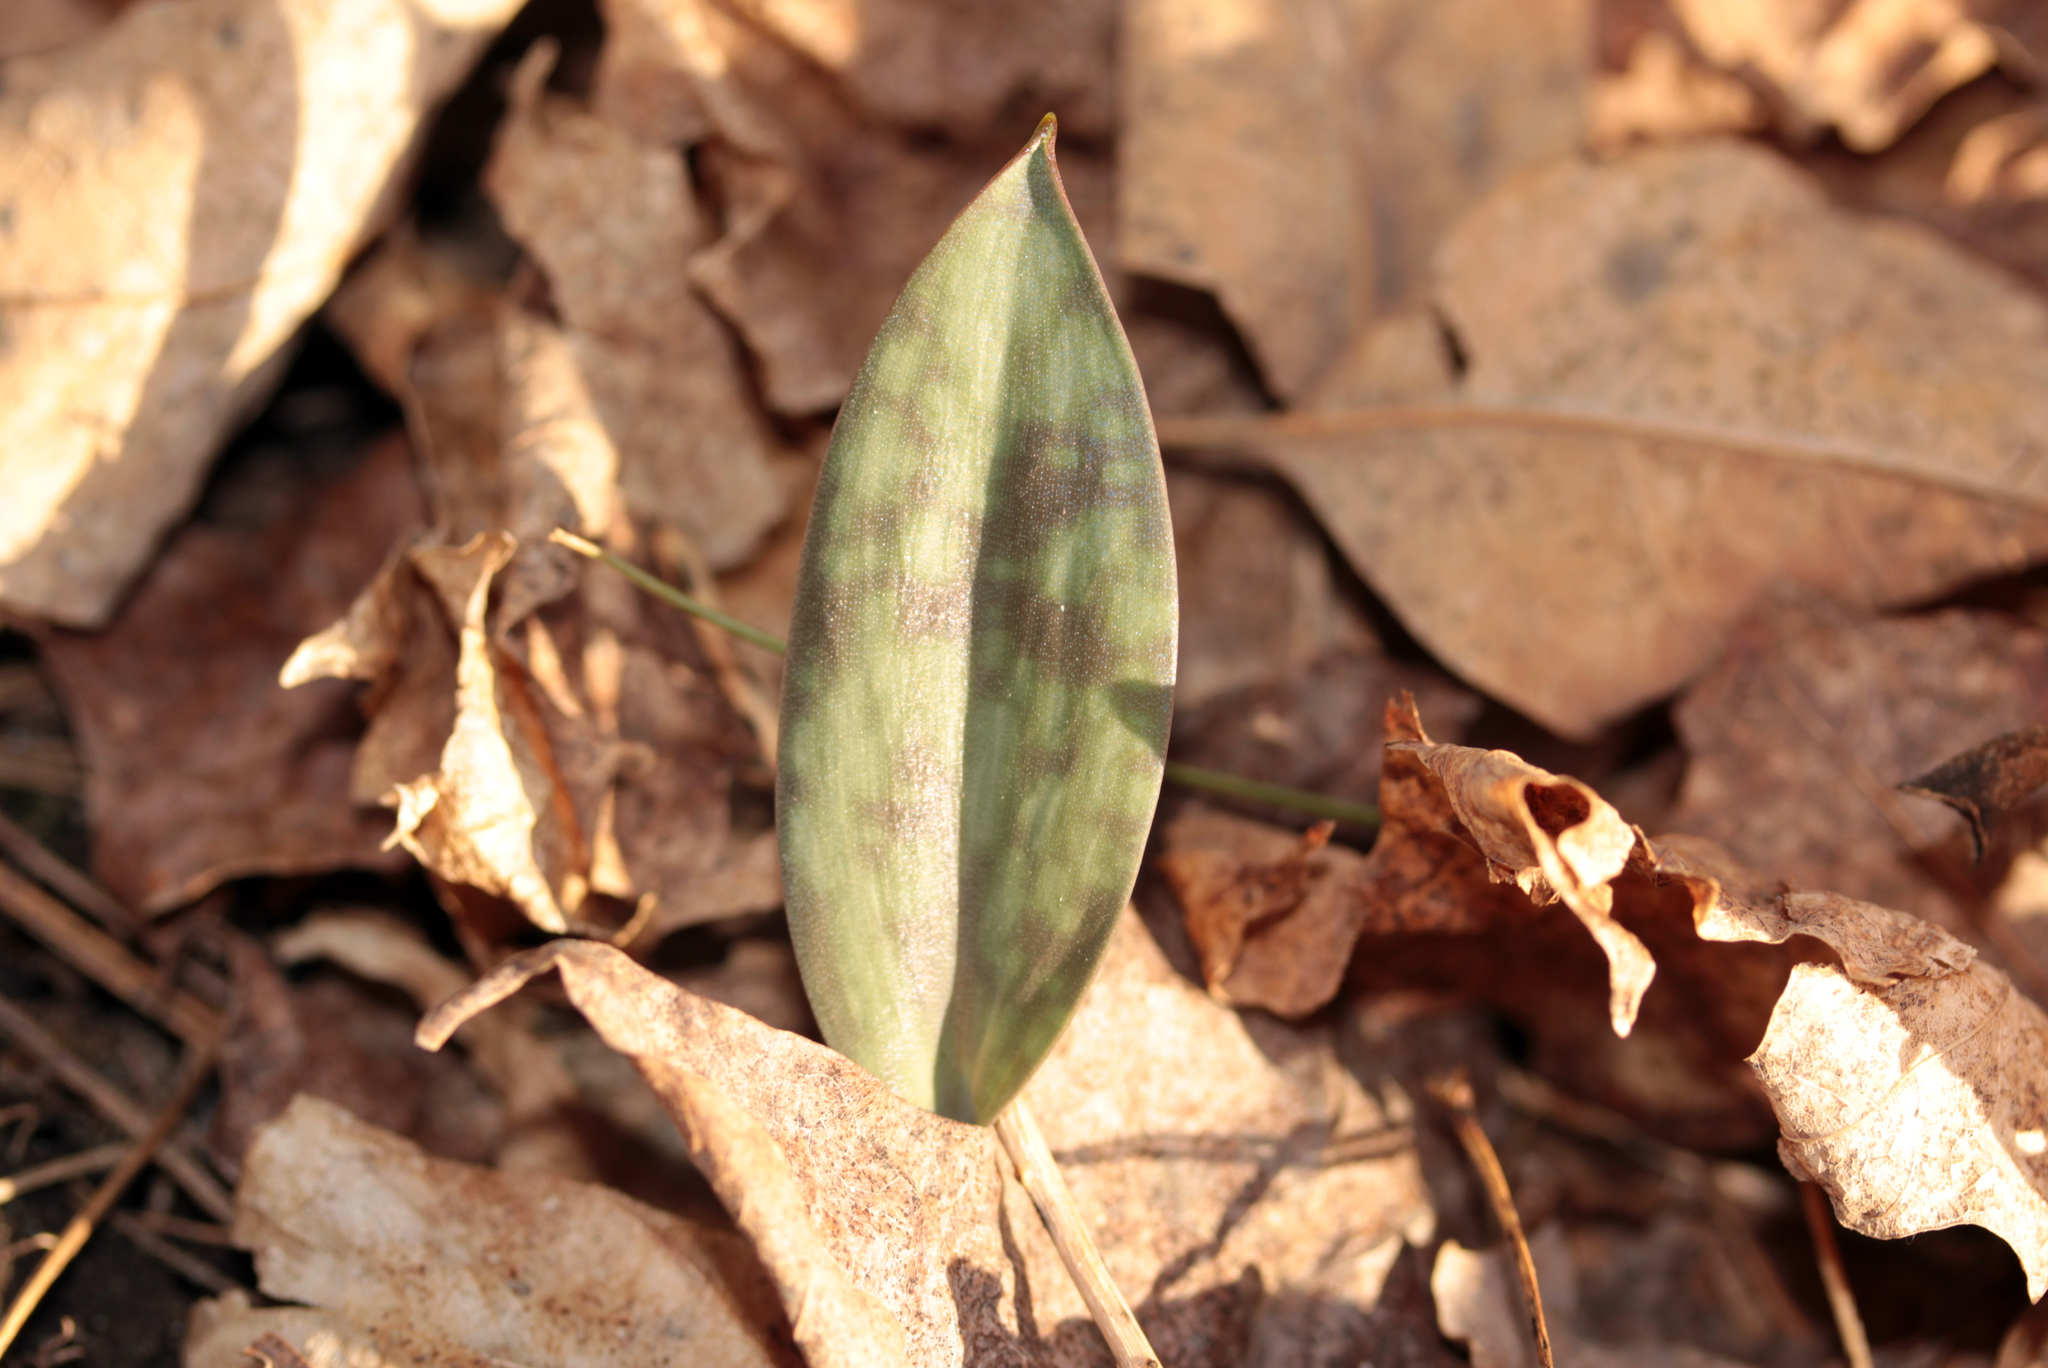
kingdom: Plantae
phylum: Tracheophyta
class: Liliopsida
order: Liliales
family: Liliaceae
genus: Erythronium
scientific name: Erythronium americanum
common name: Yellow adder's-tongue
